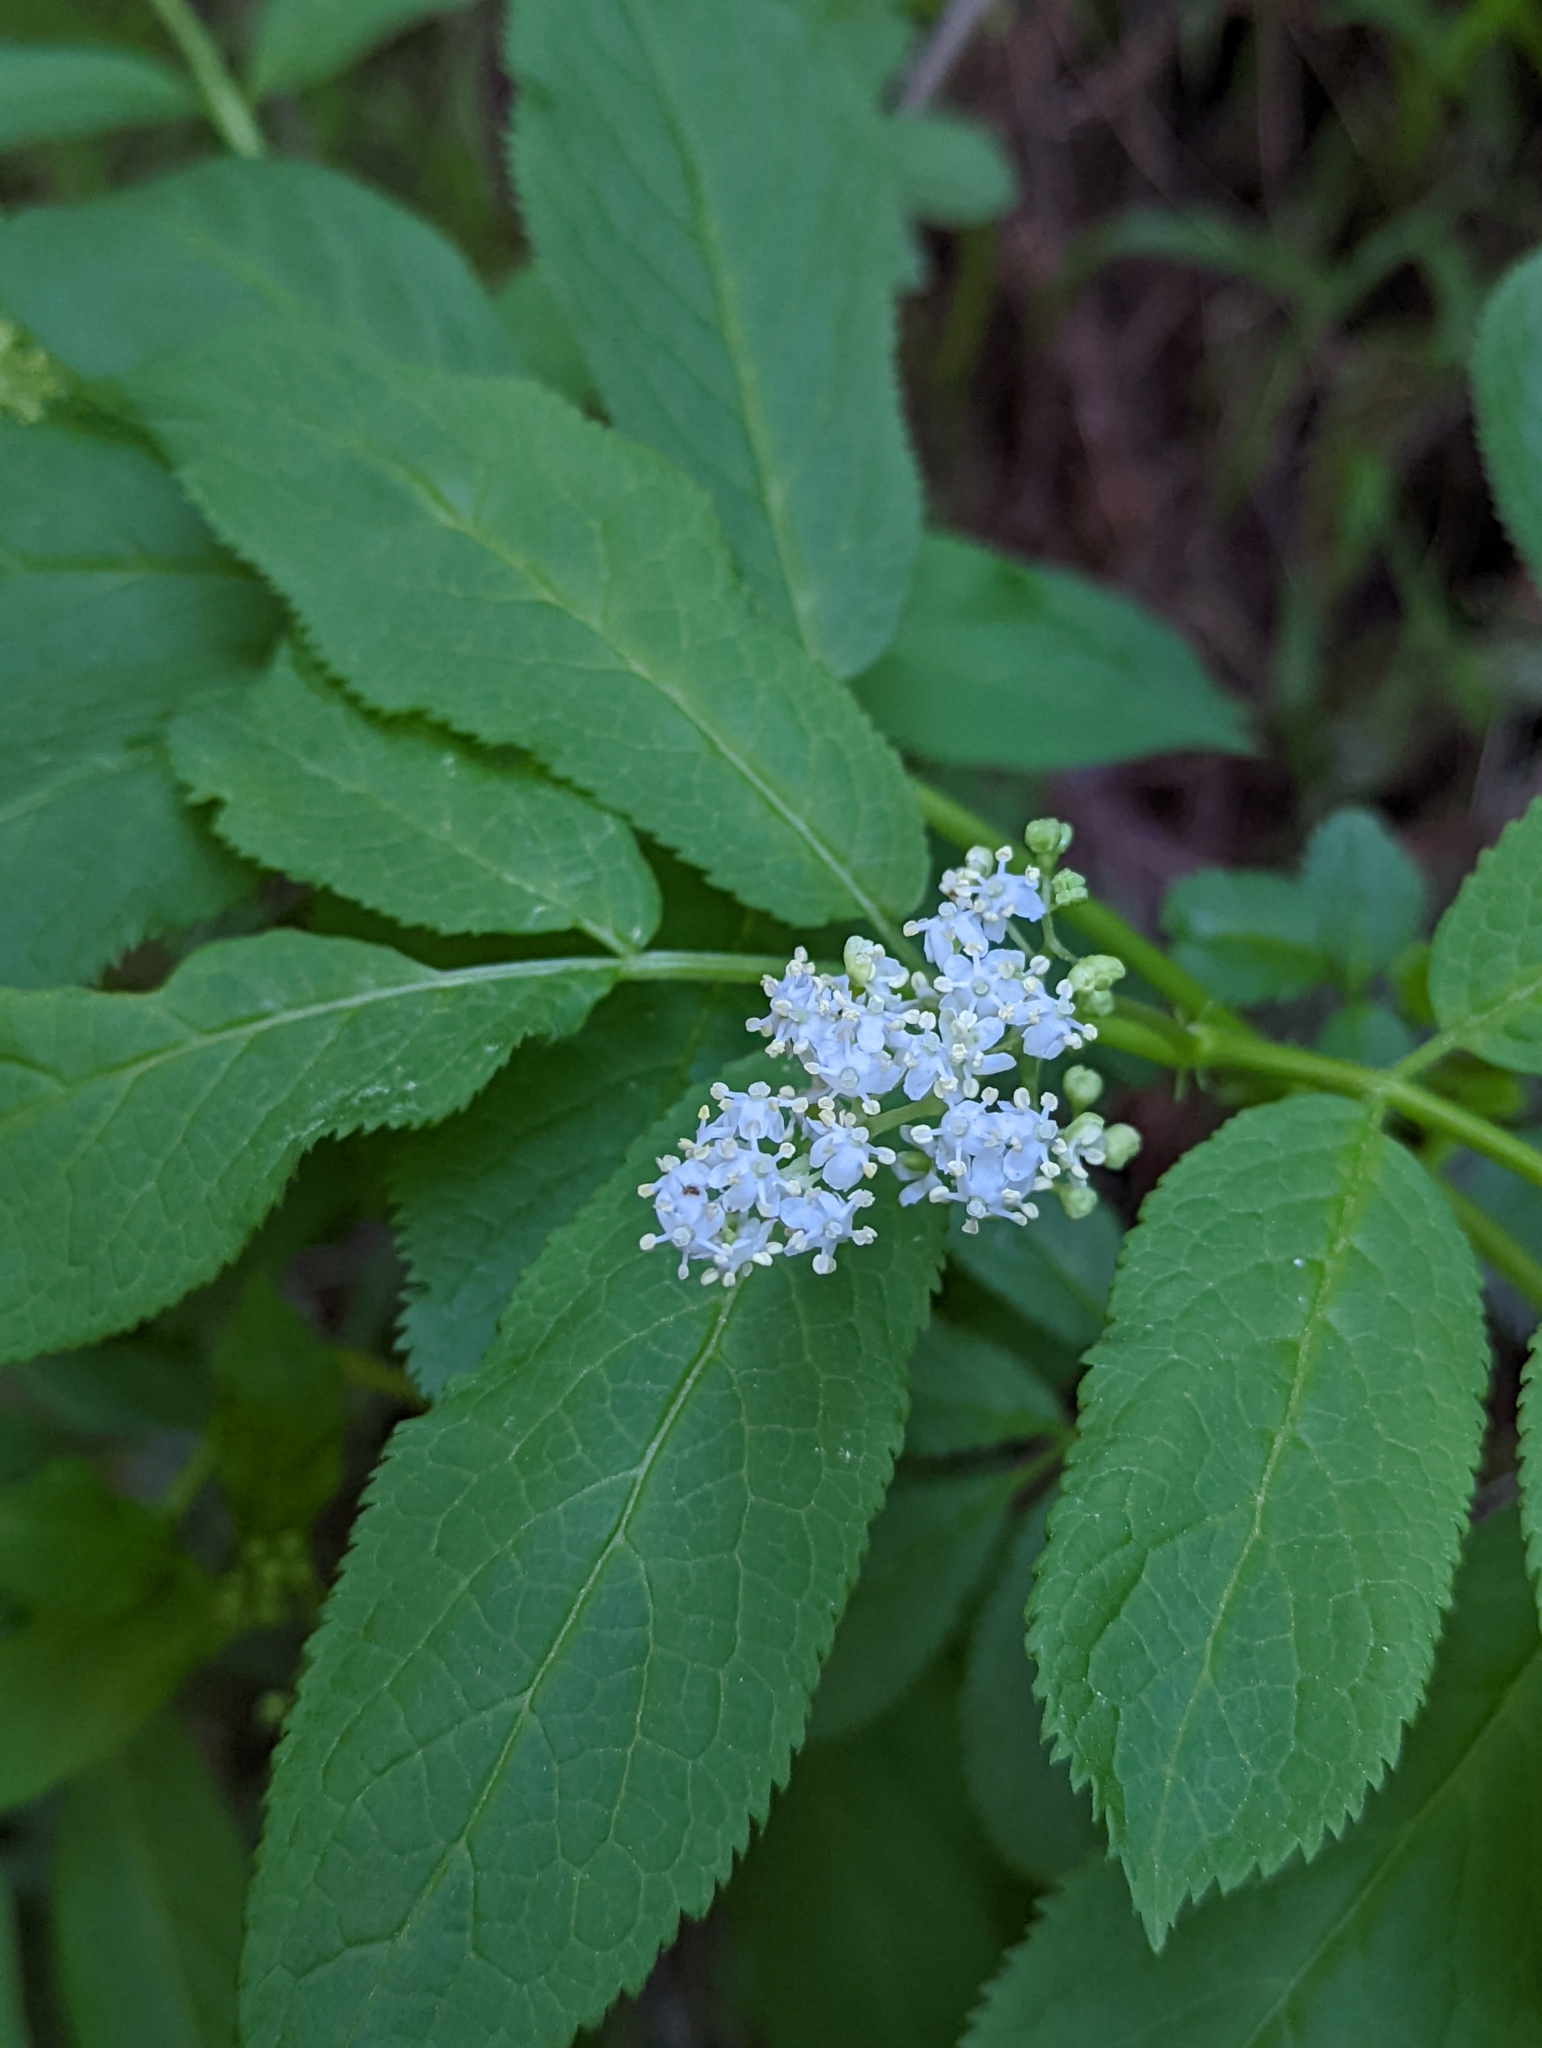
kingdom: Plantae
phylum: Tracheophyta
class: Magnoliopsida
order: Dipsacales
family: Viburnaceae
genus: Sambucus
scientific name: Sambucus racemosa
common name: Red-berried elder
